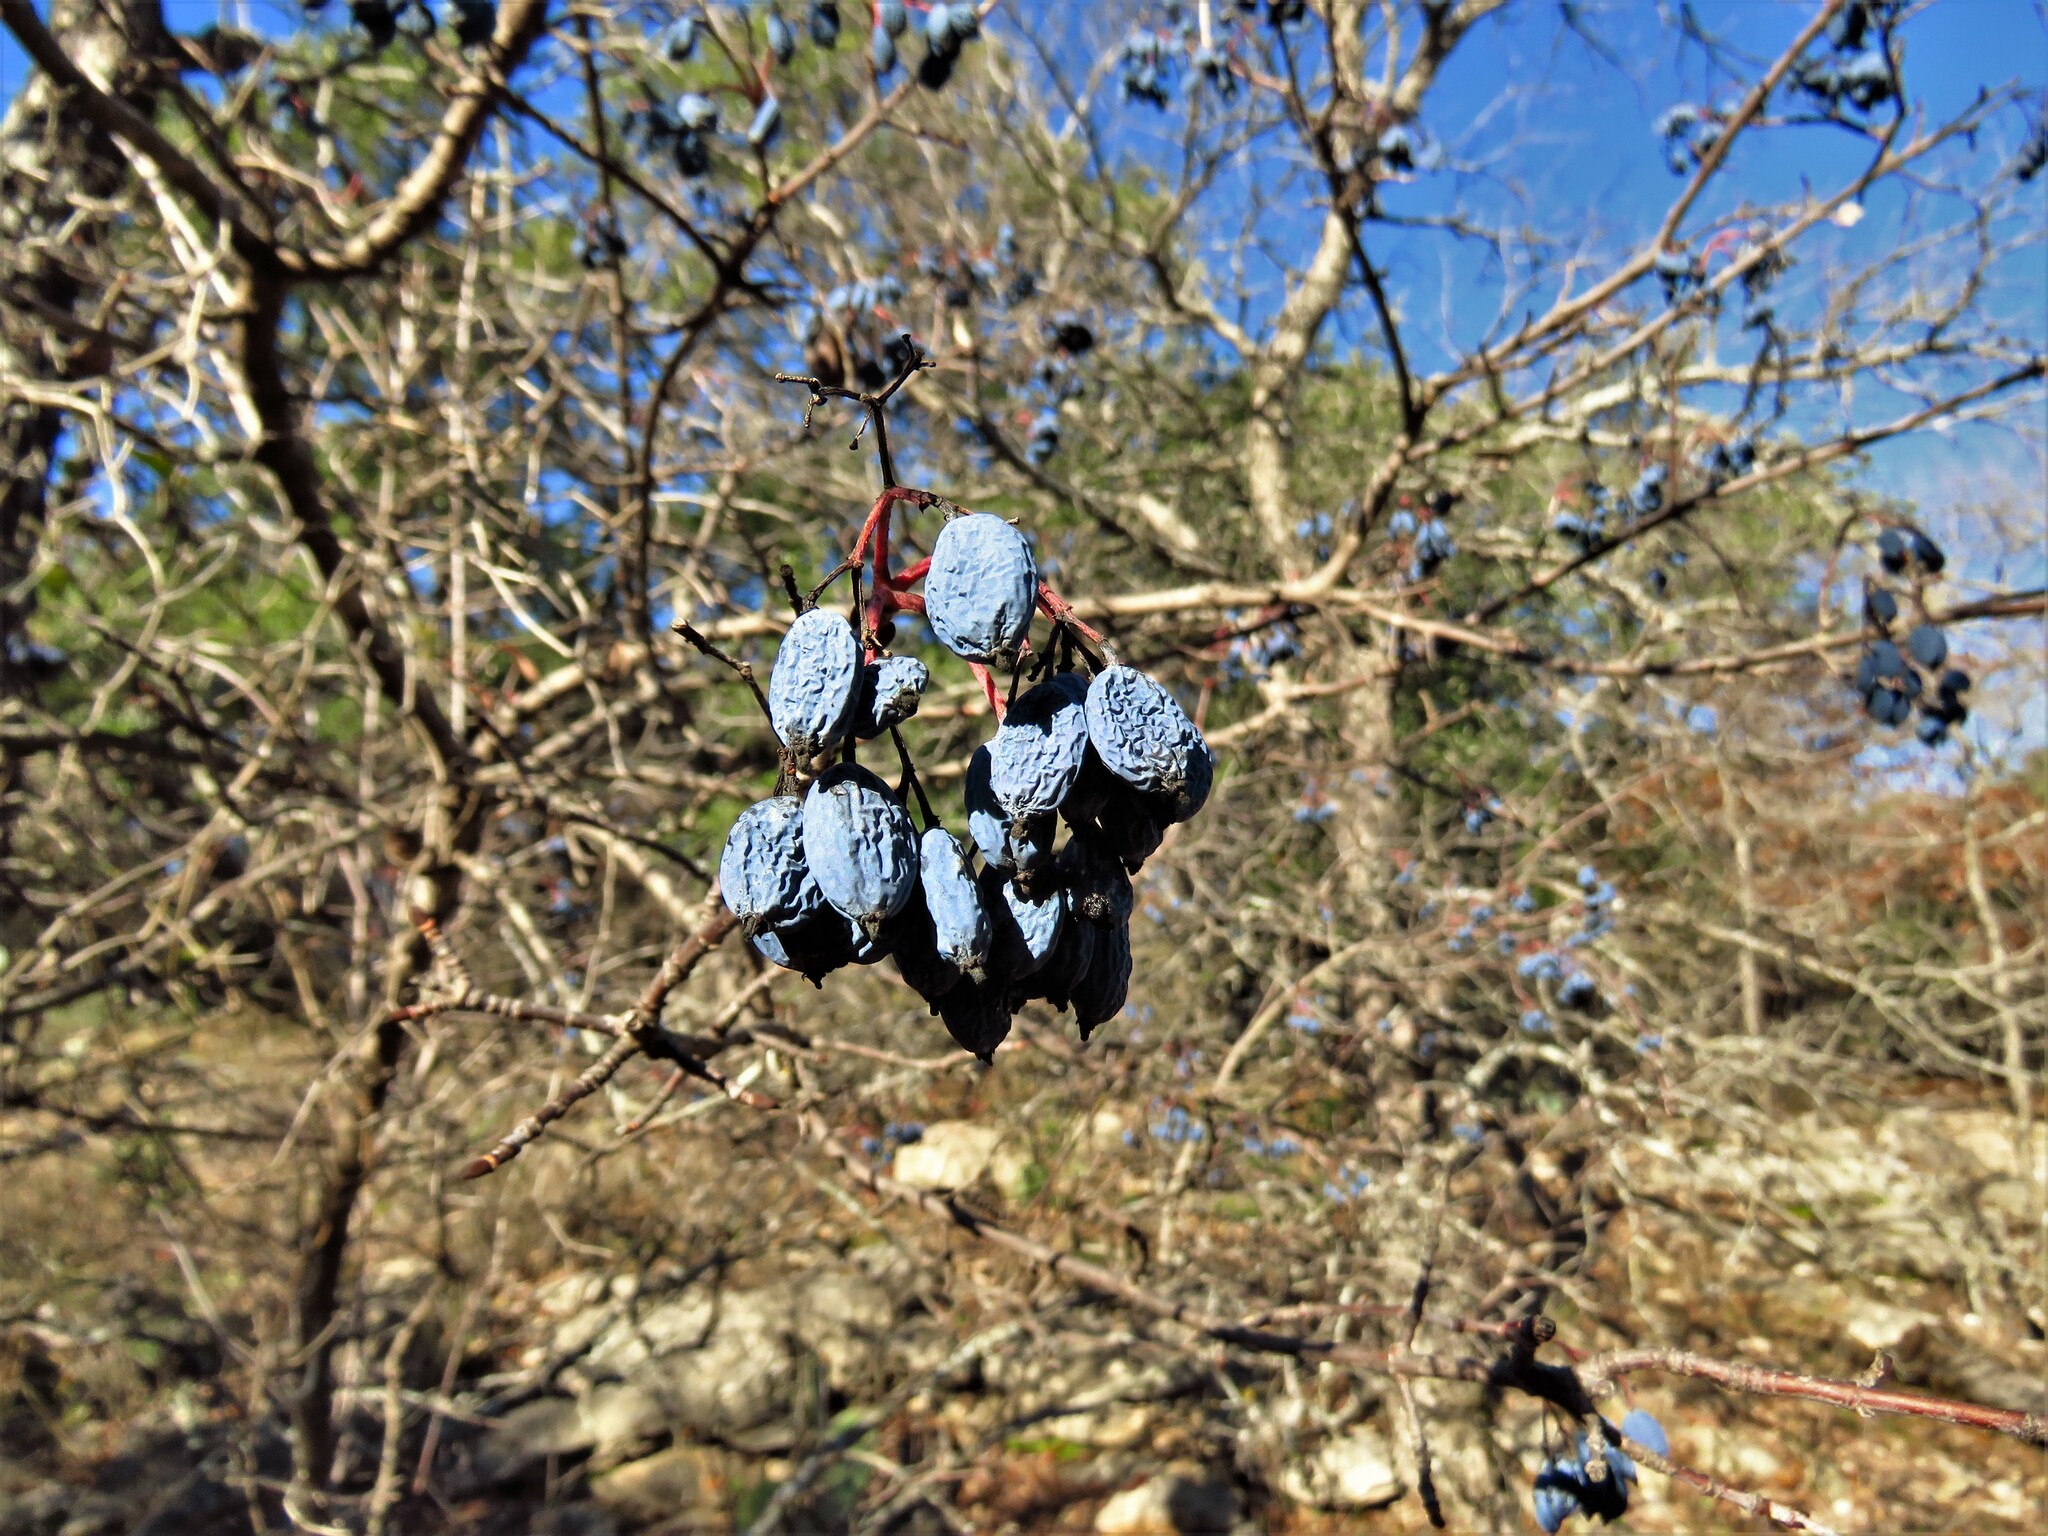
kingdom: Plantae
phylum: Tracheophyta
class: Magnoliopsida
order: Dipsacales
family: Viburnaceae
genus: Viburnum
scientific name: Viburnum rufidulum
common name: Blue haw
